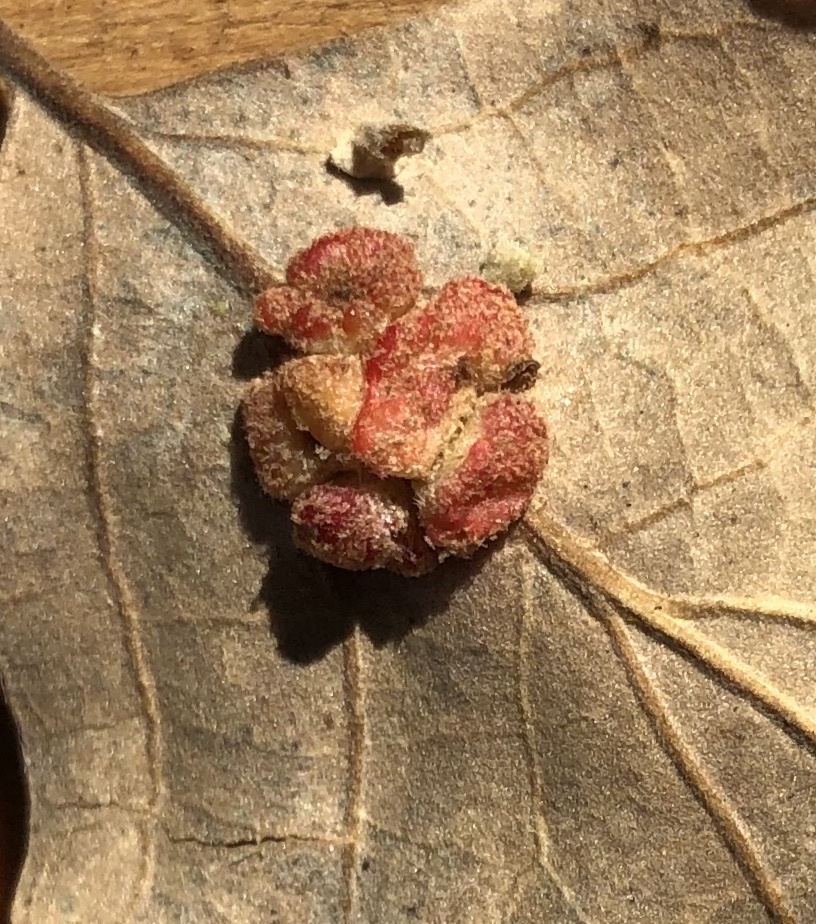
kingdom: Animalia
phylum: Arthropoda
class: Insecta
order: Hymenoptera
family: Cynipidae
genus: Andricus
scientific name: Andricus
